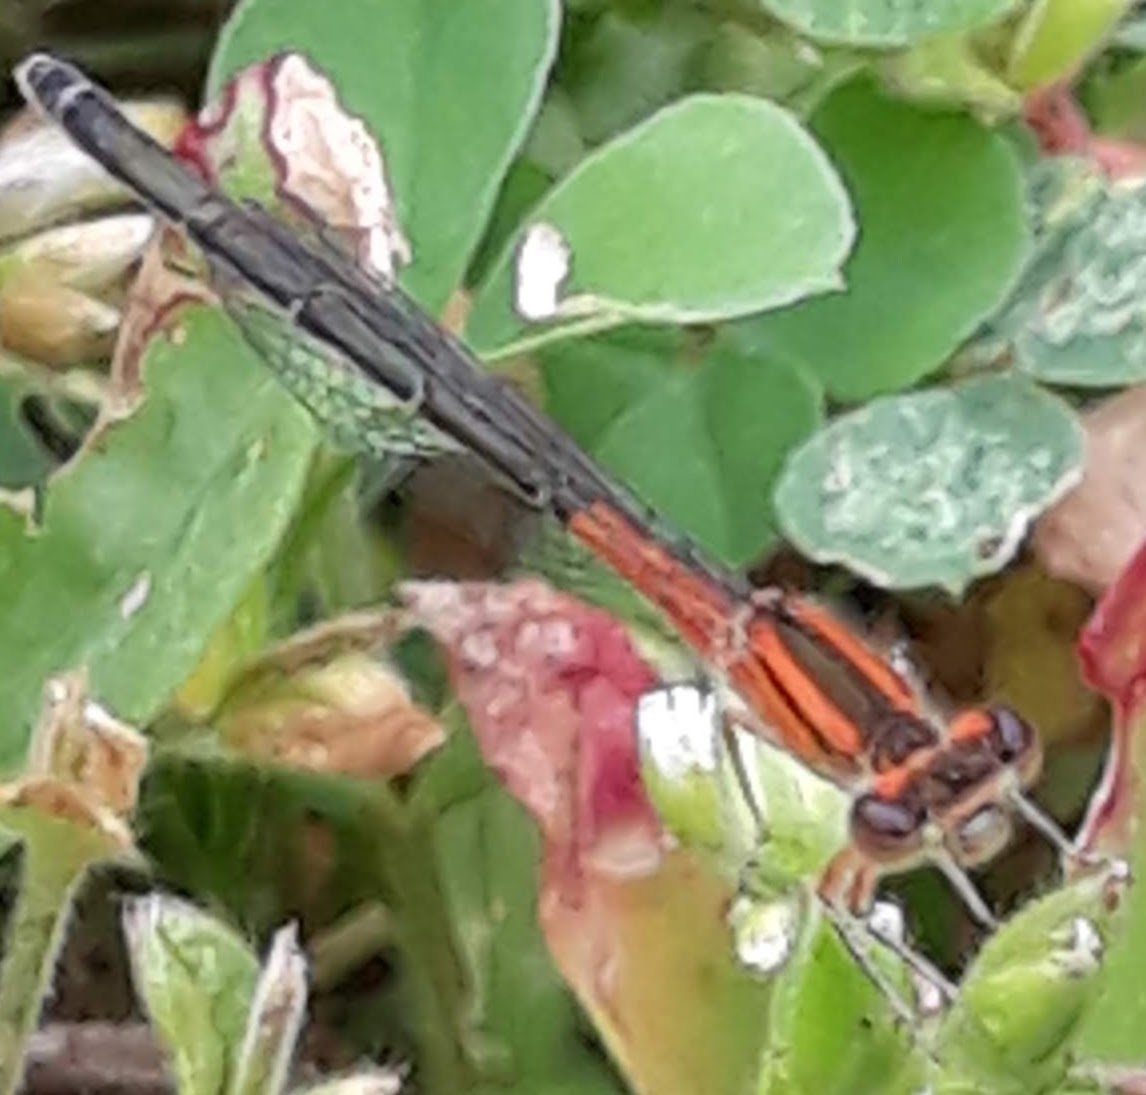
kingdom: Animalia
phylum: Arthropoda
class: Insecta
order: Odonata
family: Coenagrionidae
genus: Ischnura
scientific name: Ischnura verticalis
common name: Eastern forktail
